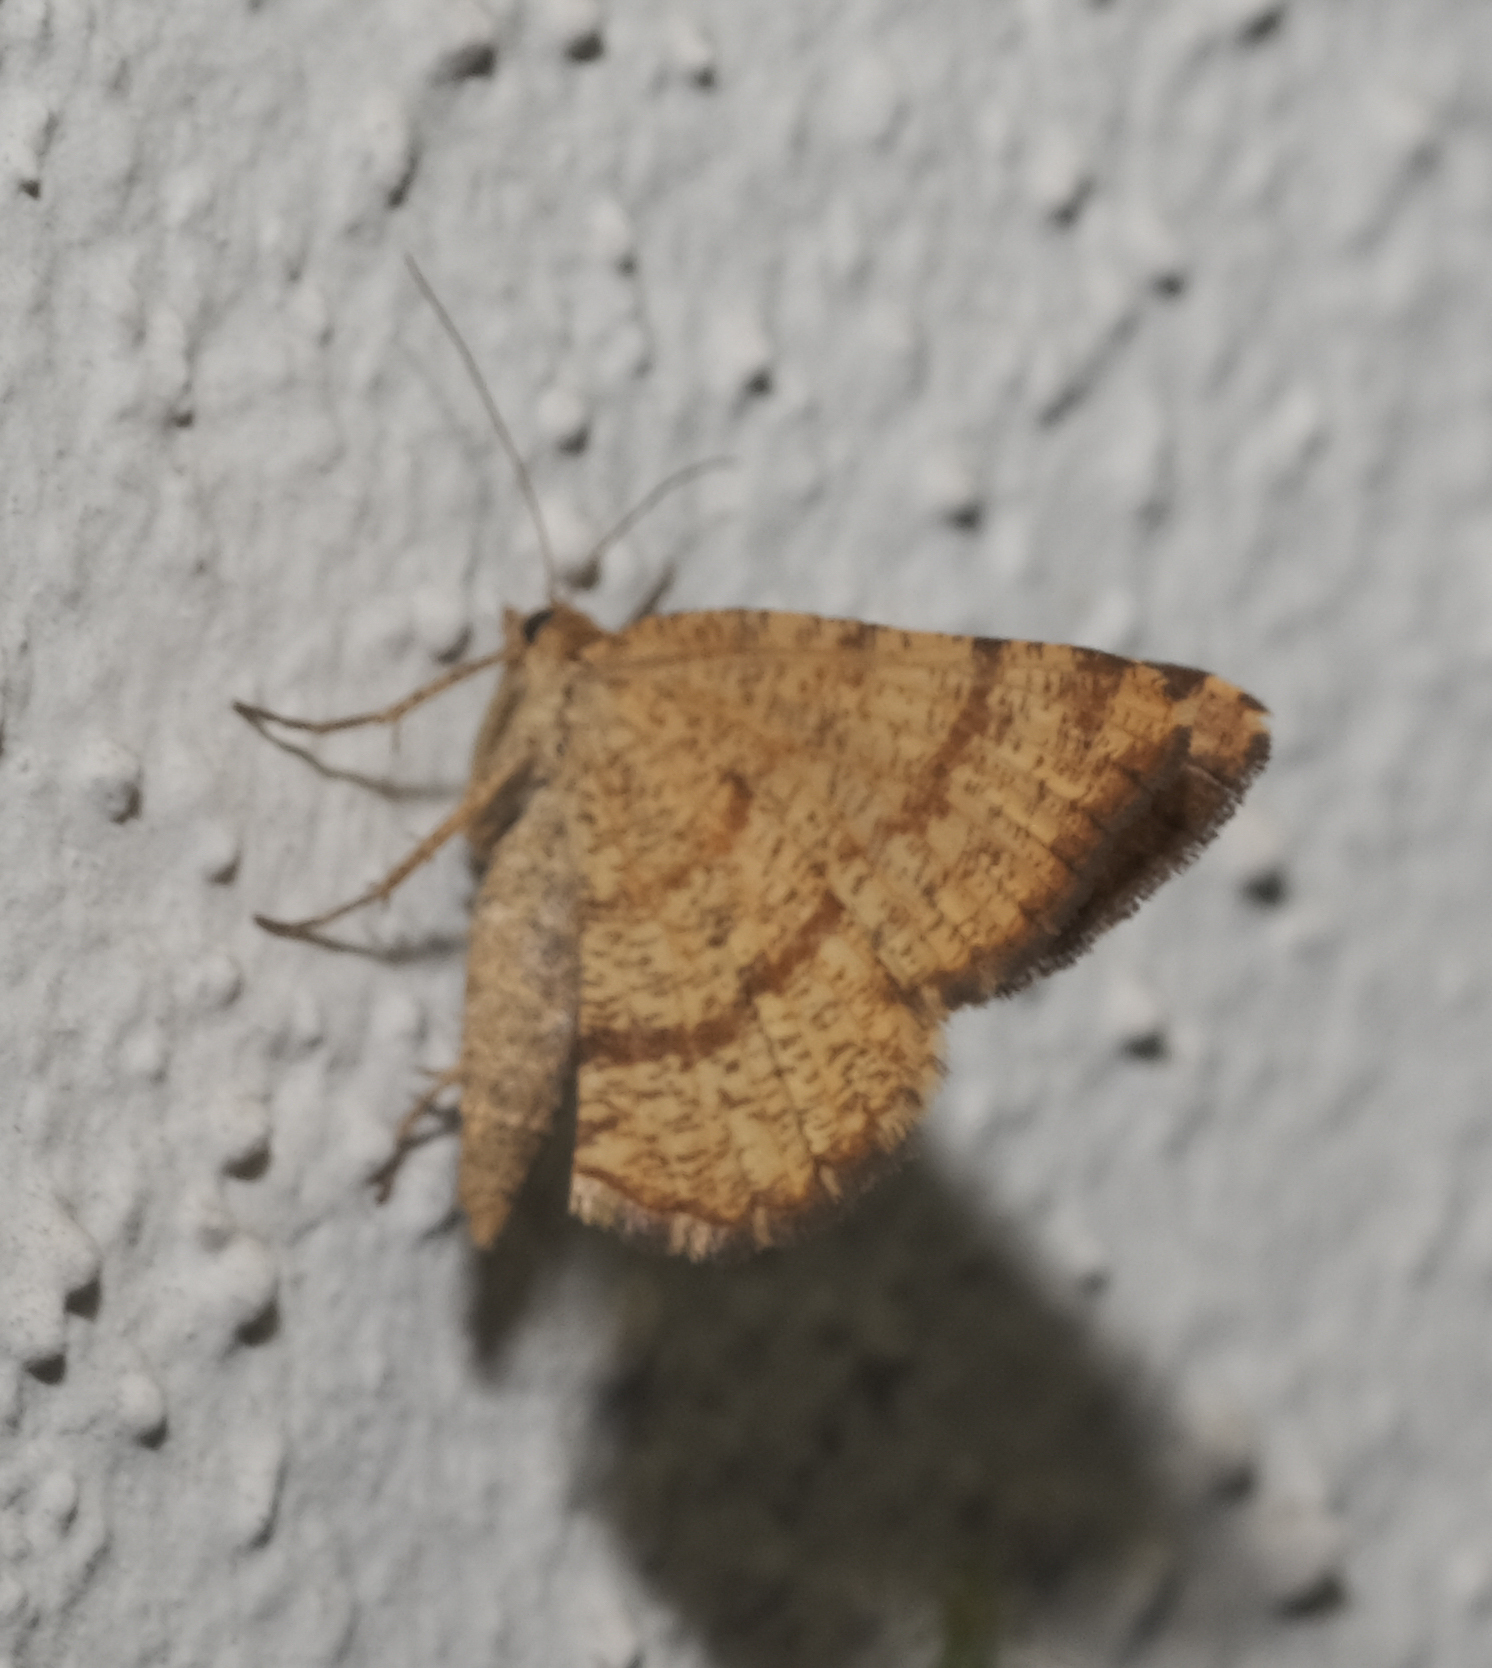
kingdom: Animalia
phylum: Arthropoda
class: Insecta
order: Lepidoptera
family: Geometridae
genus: Macaria
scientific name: Macaria brunneata
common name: Rannoch looper
